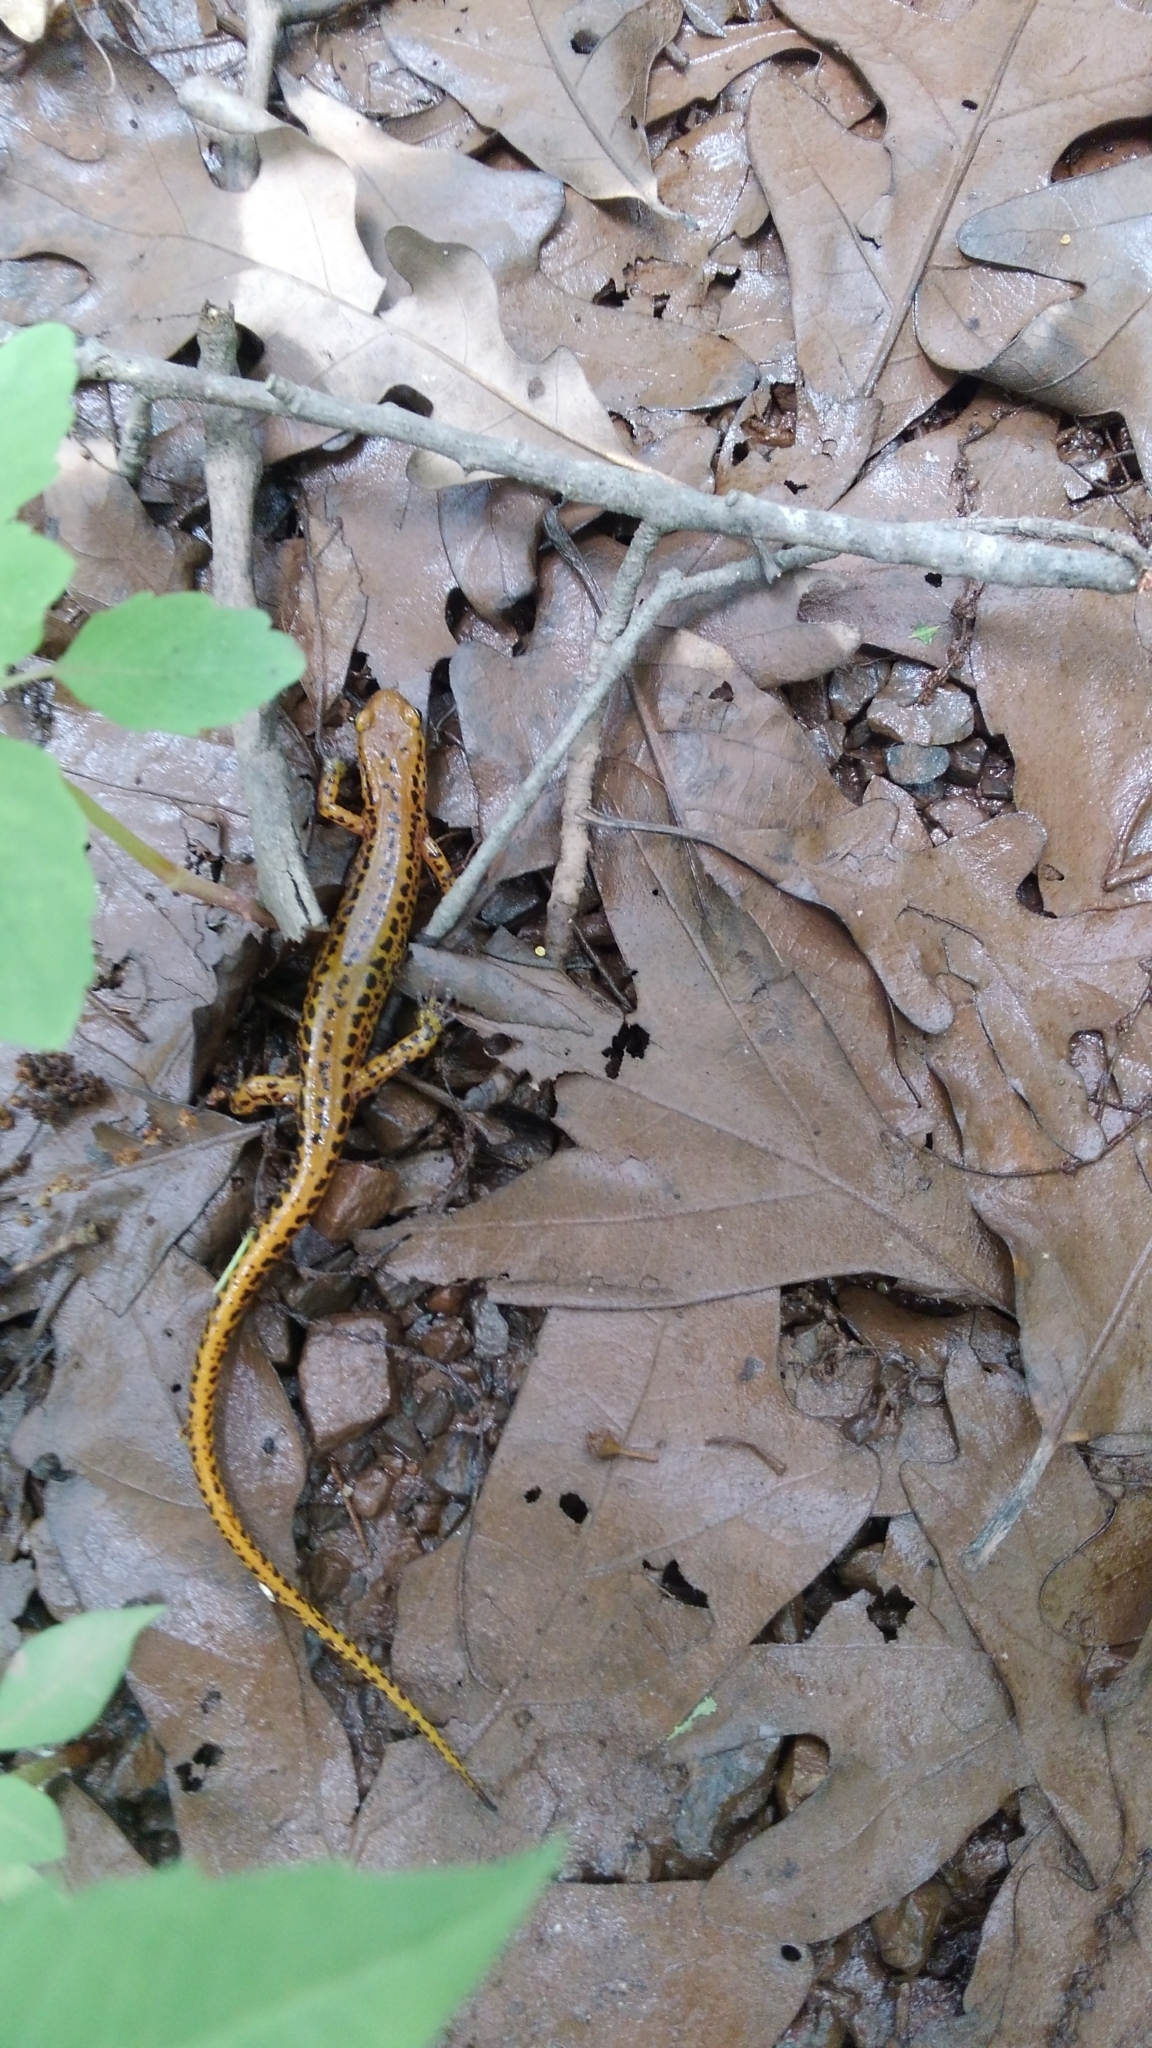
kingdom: Animalia
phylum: Chordata
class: Amphibia
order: Caudata
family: Plethodontidae
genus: Eurycea
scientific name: Eurycea longicauda
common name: Long-tailed salamander
